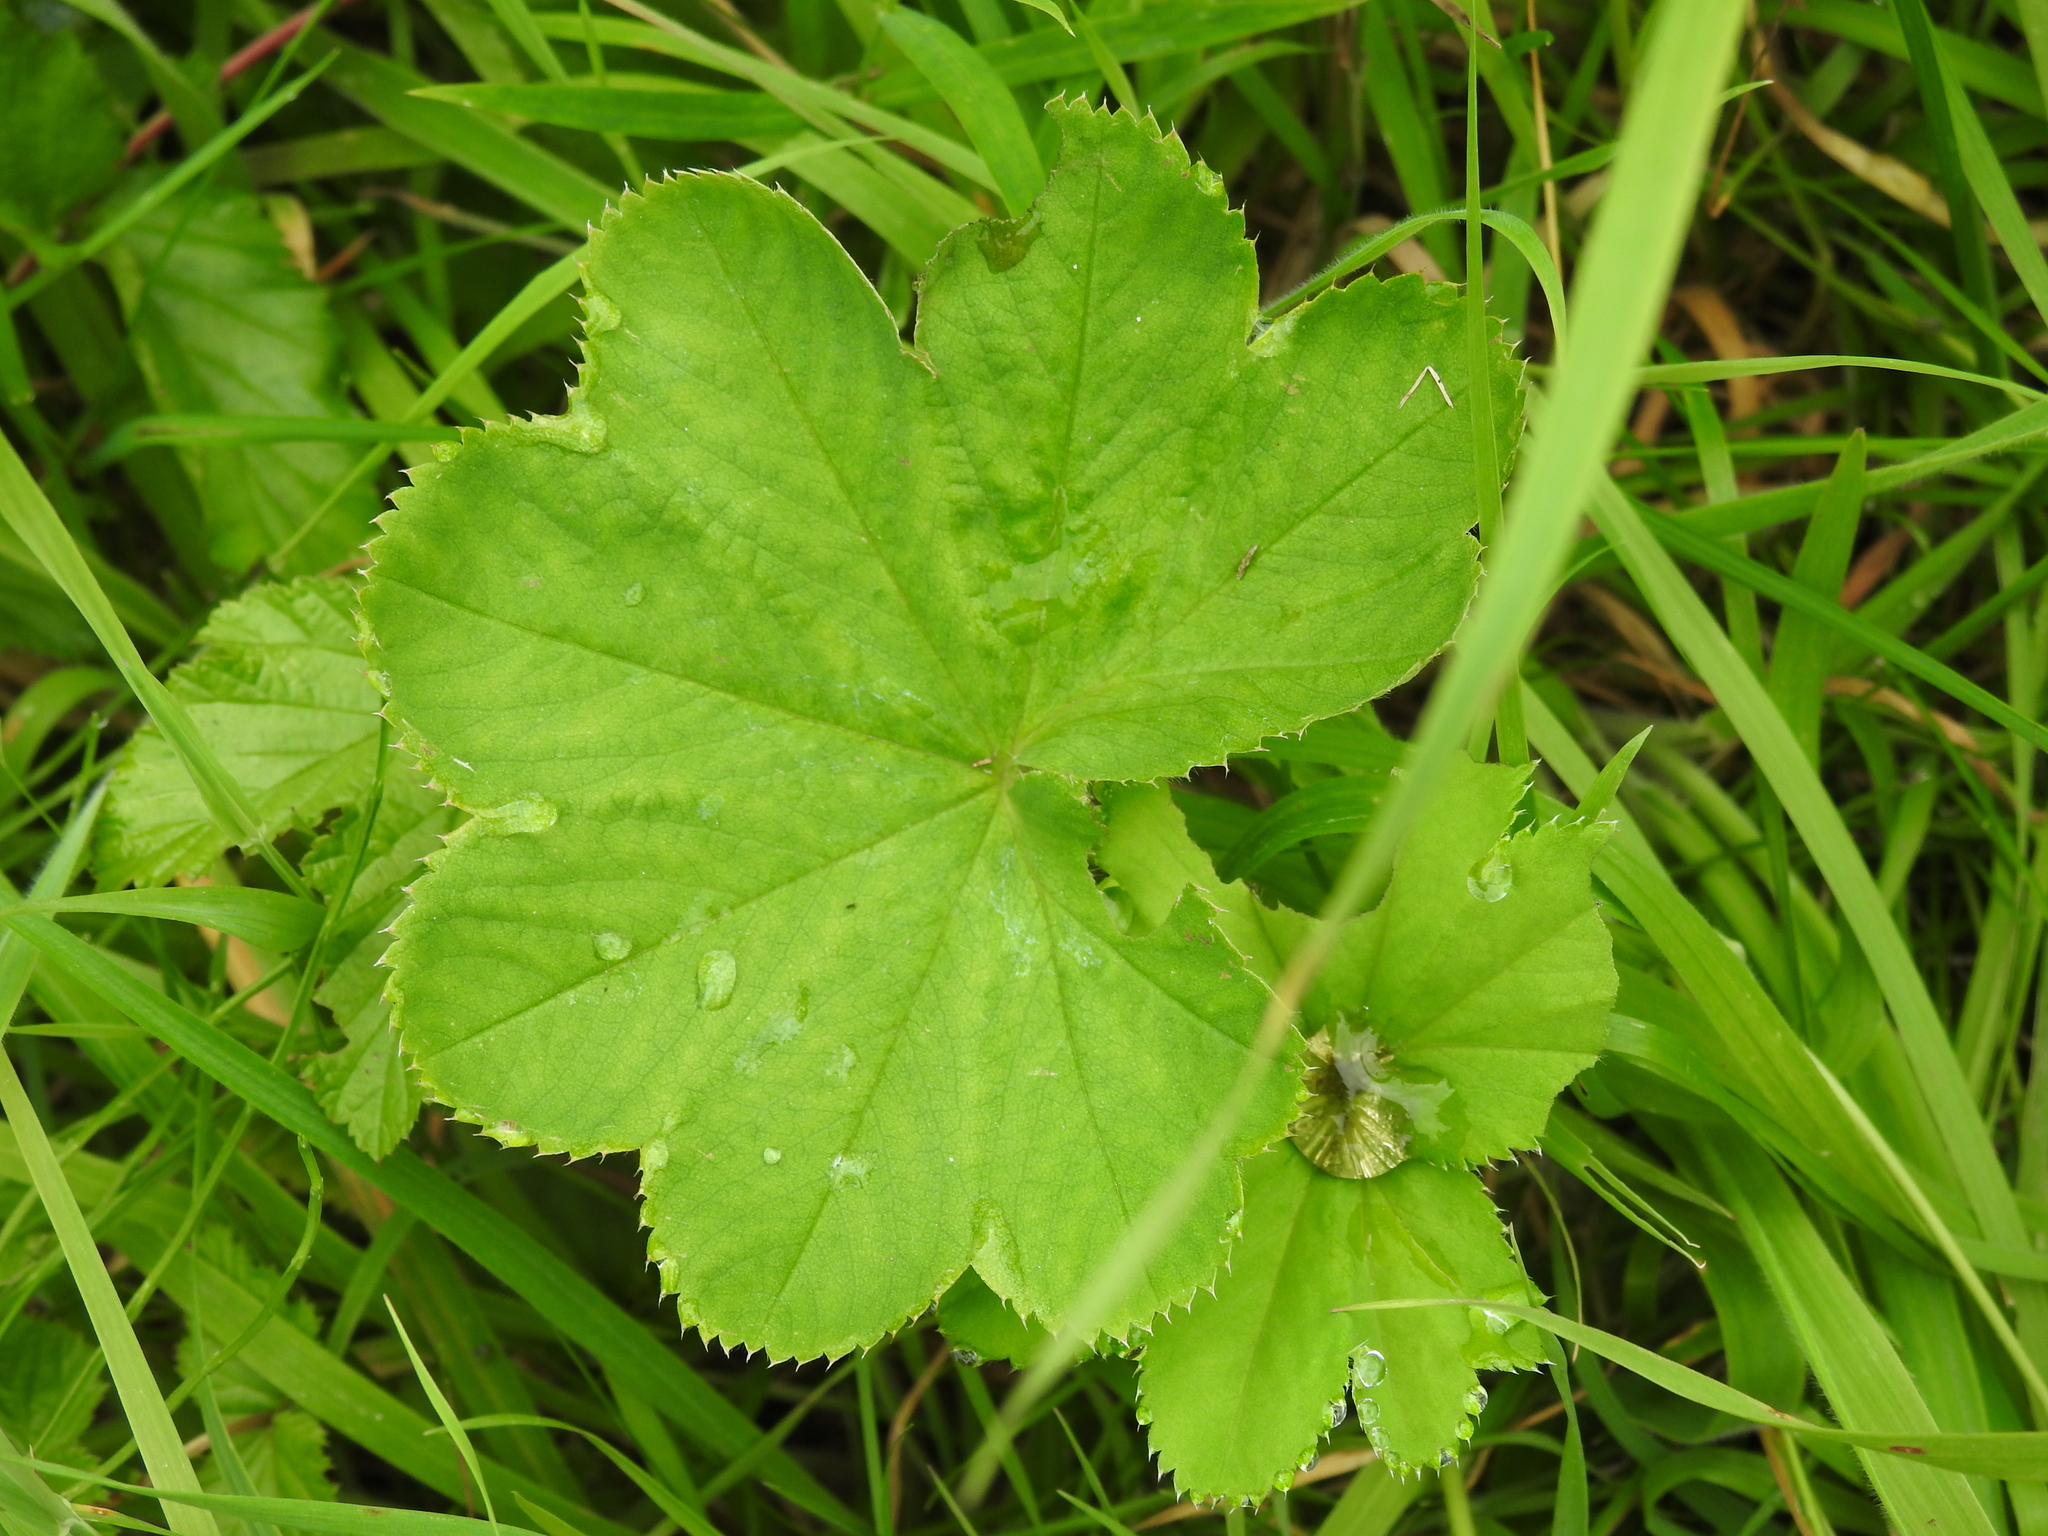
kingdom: Plantae
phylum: Tracheophyta
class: Magnoliopsida
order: Rosales
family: Rosaceae
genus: Alchemilla
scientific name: Alchemilla xanthochlora
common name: Intermediate lady's-mantle
